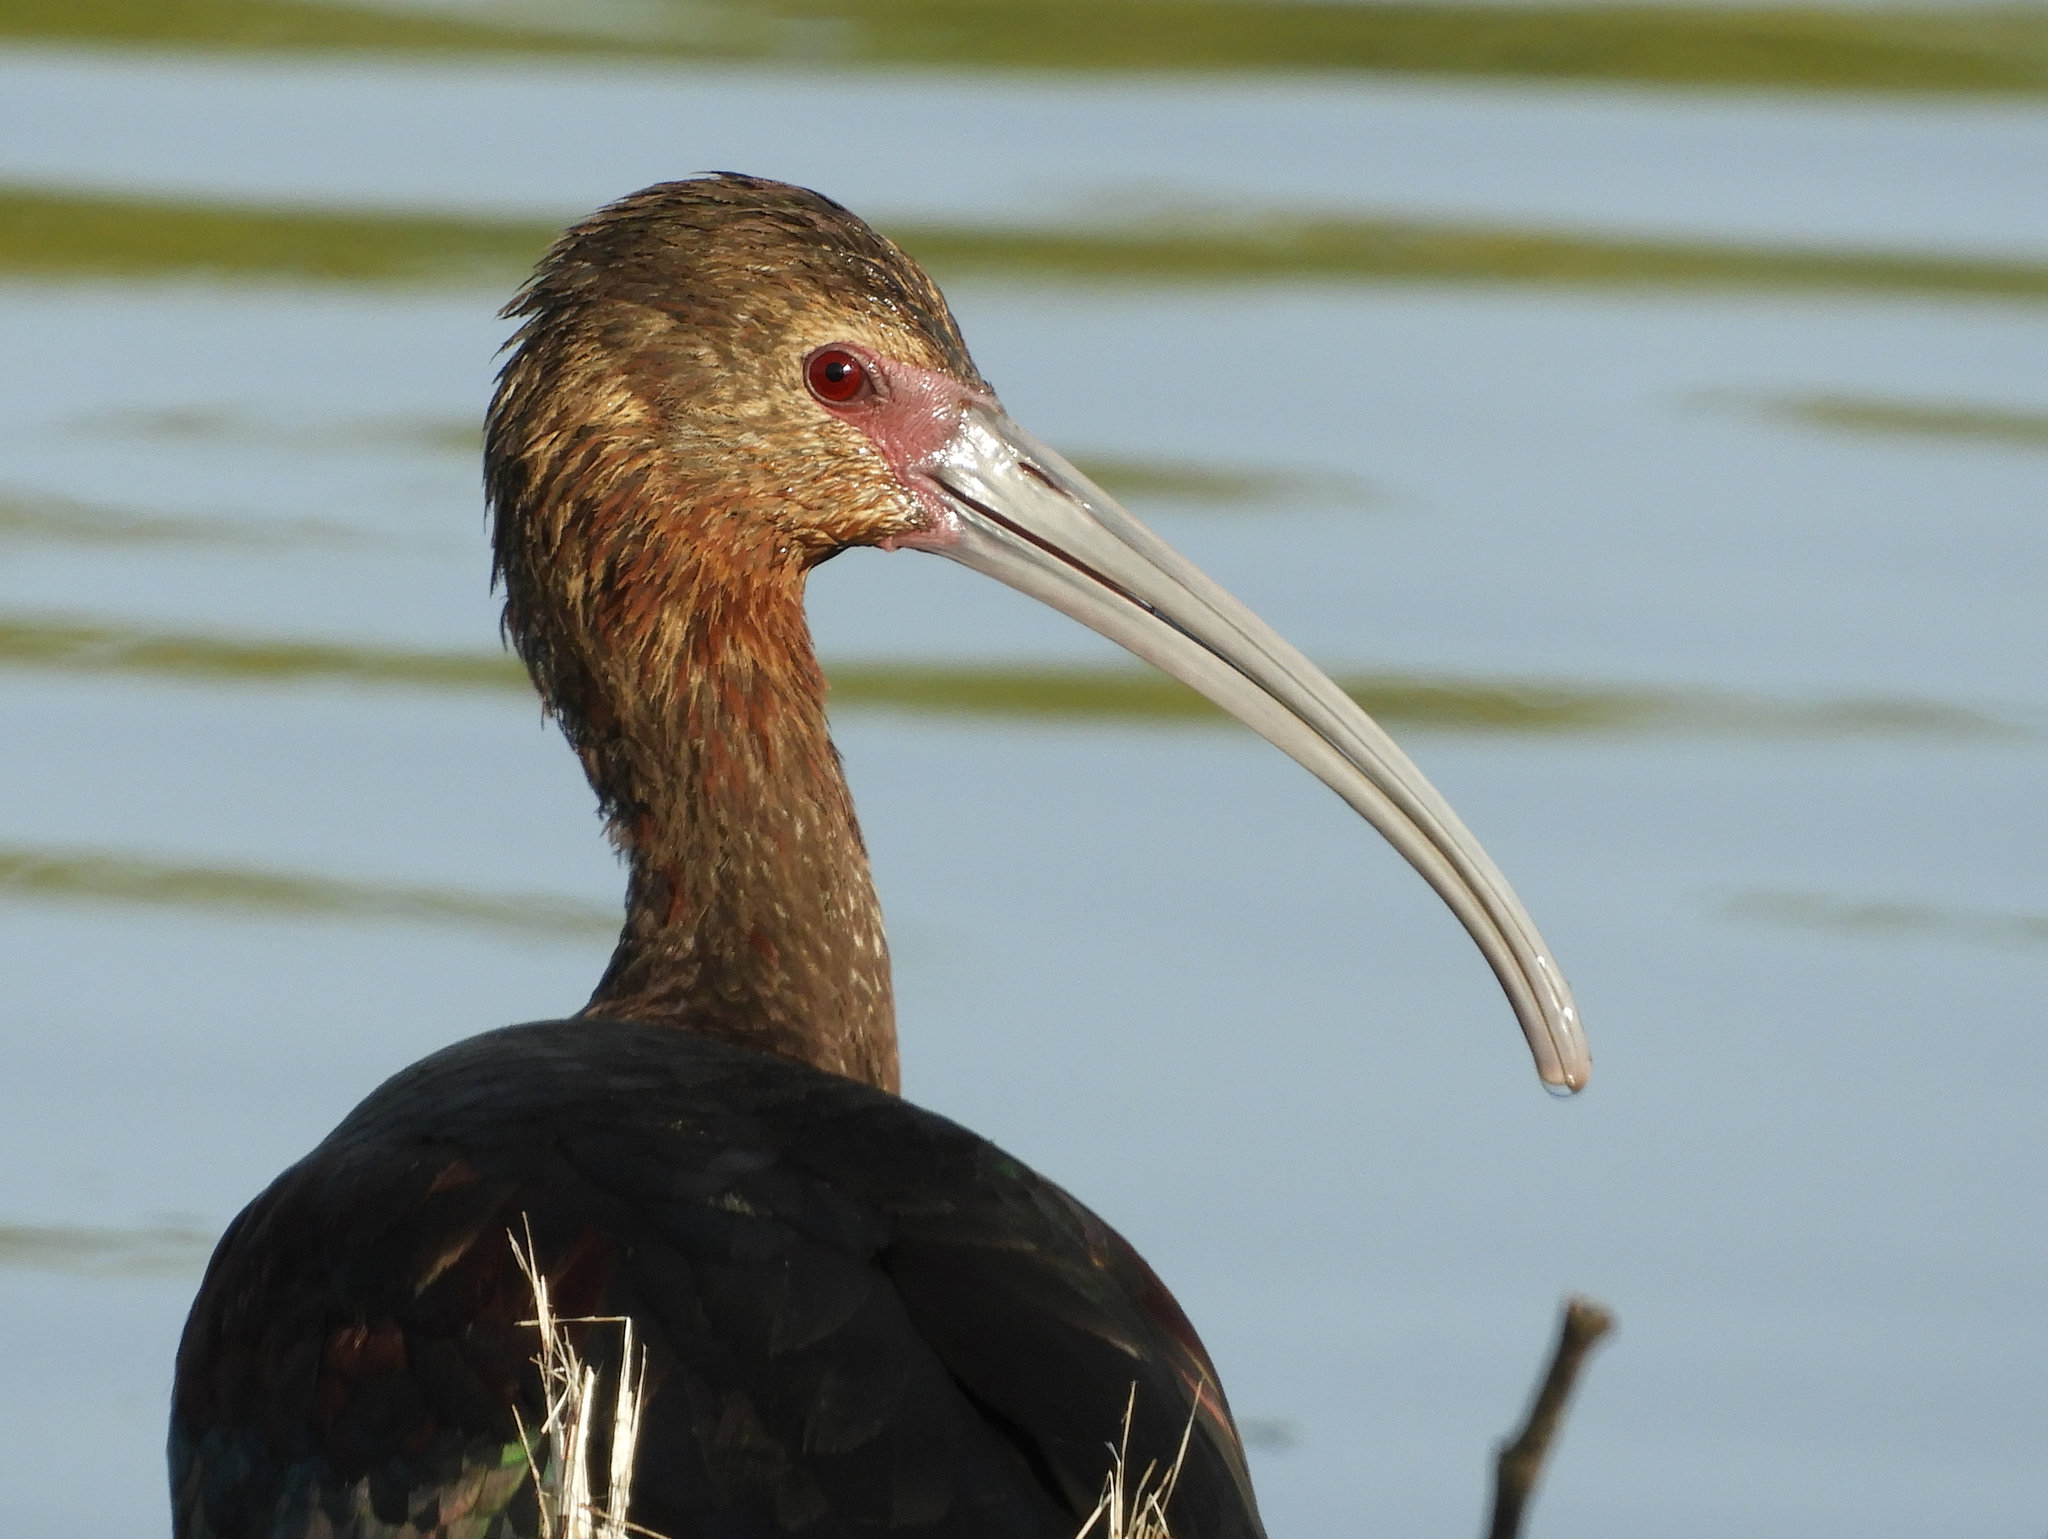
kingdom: Animalia
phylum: Chordata
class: Aves
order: Pelecaniformes
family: Threskiornithidae
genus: Plegadis
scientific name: Plegadis chihi
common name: White-faced ibis
